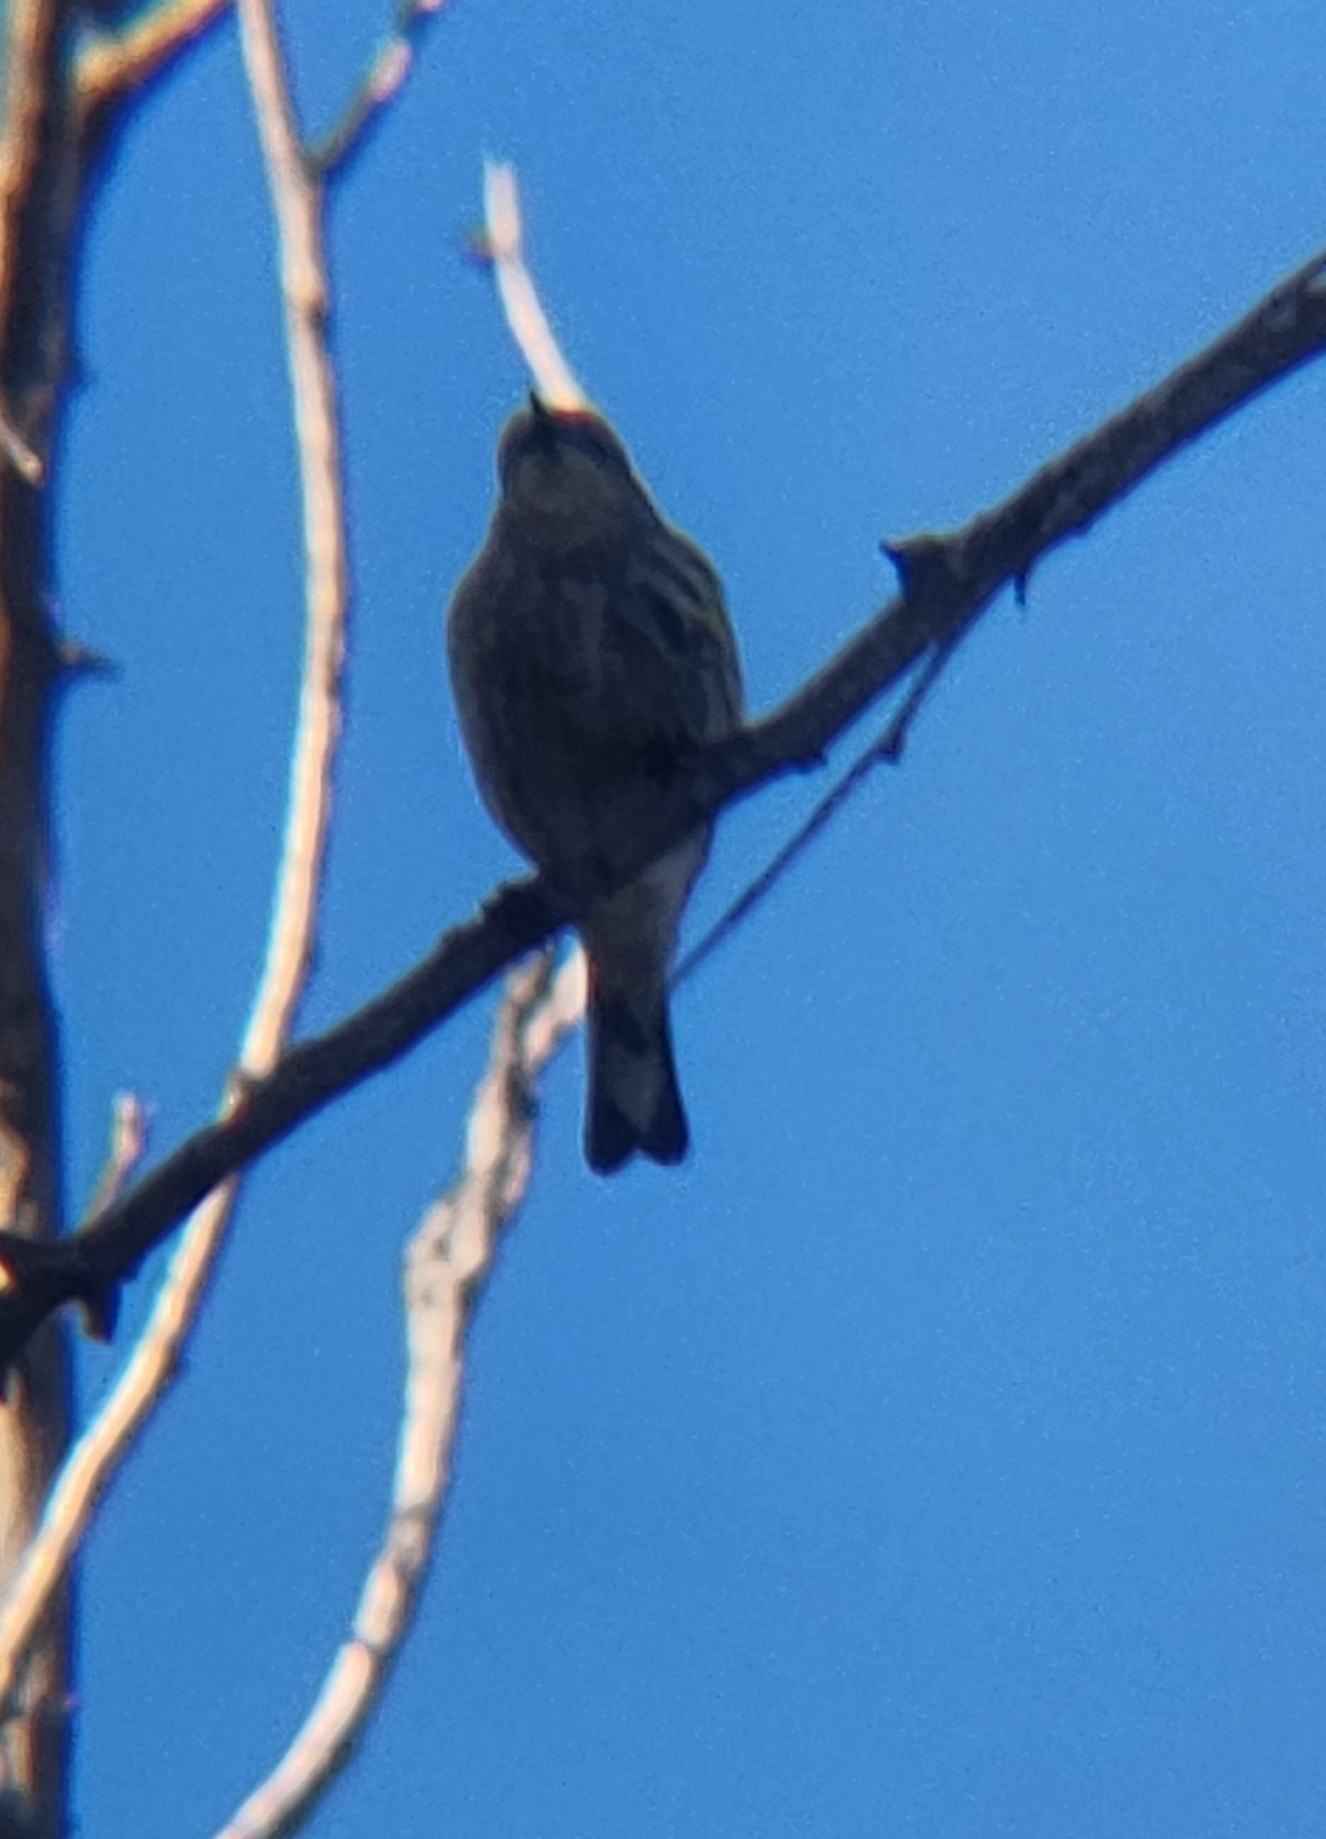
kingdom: Animalia
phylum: Chordata
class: Aves
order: Passeriformes
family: Parulidae
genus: Setophaga
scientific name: Setophaga coronata
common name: Myrtle warbler
